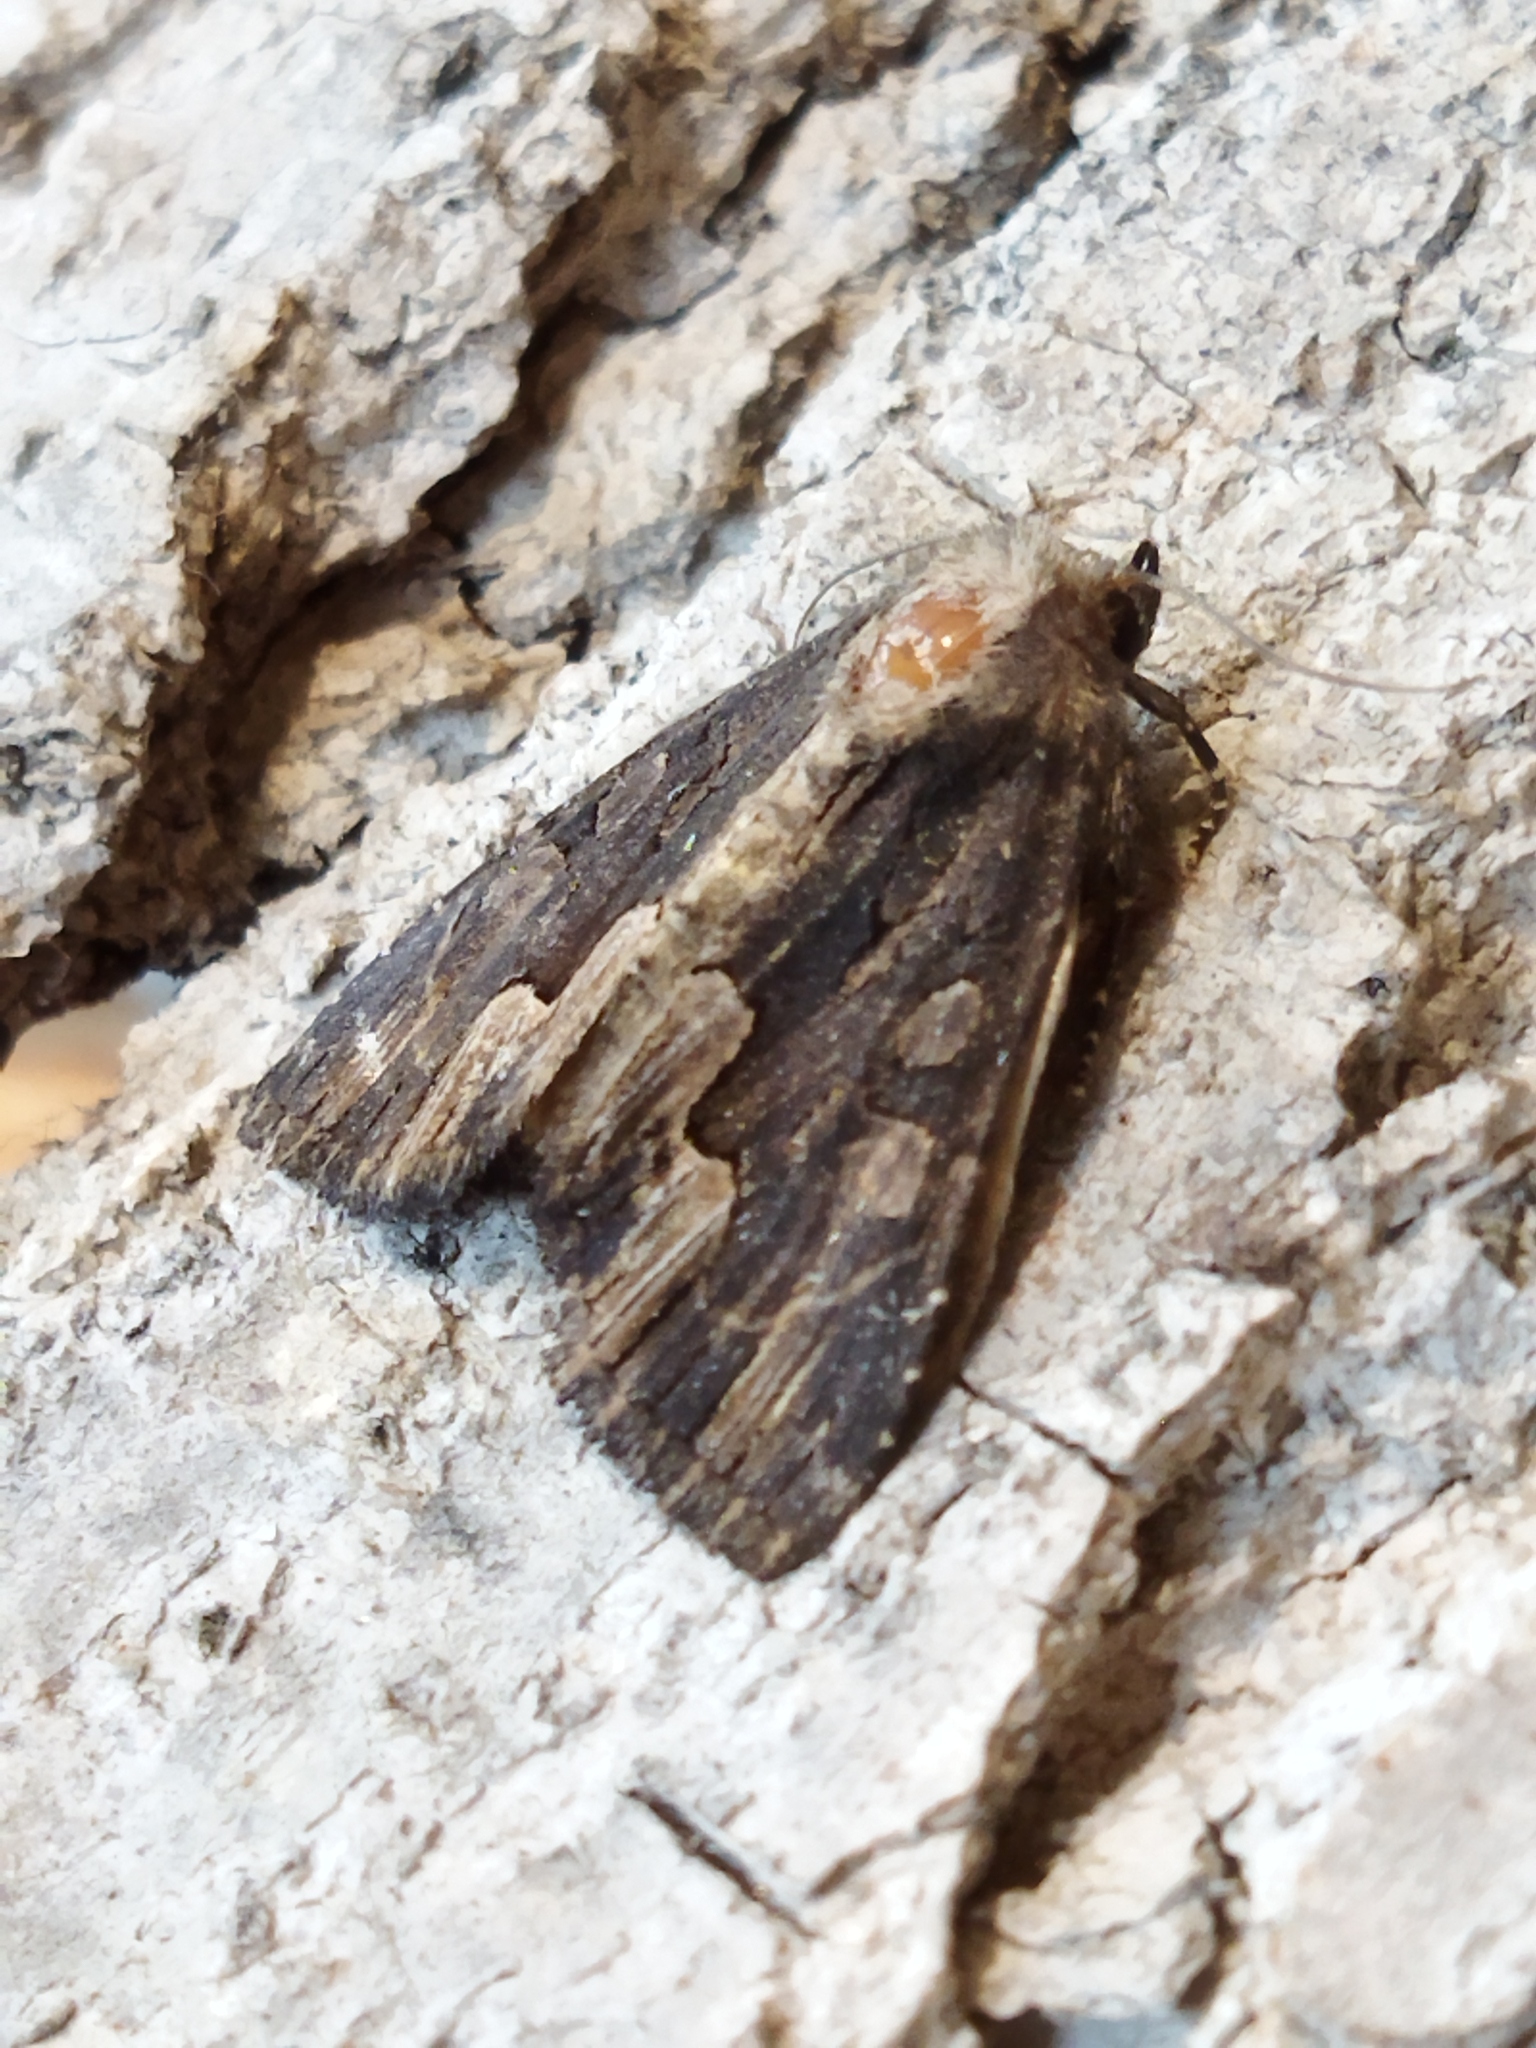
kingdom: Animalia
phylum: Arthropoda
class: Insecta
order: Lepidoptera
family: Noctuidae
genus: Dypterygia
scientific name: Dypterygia scabriuscula
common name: Bird's wing
